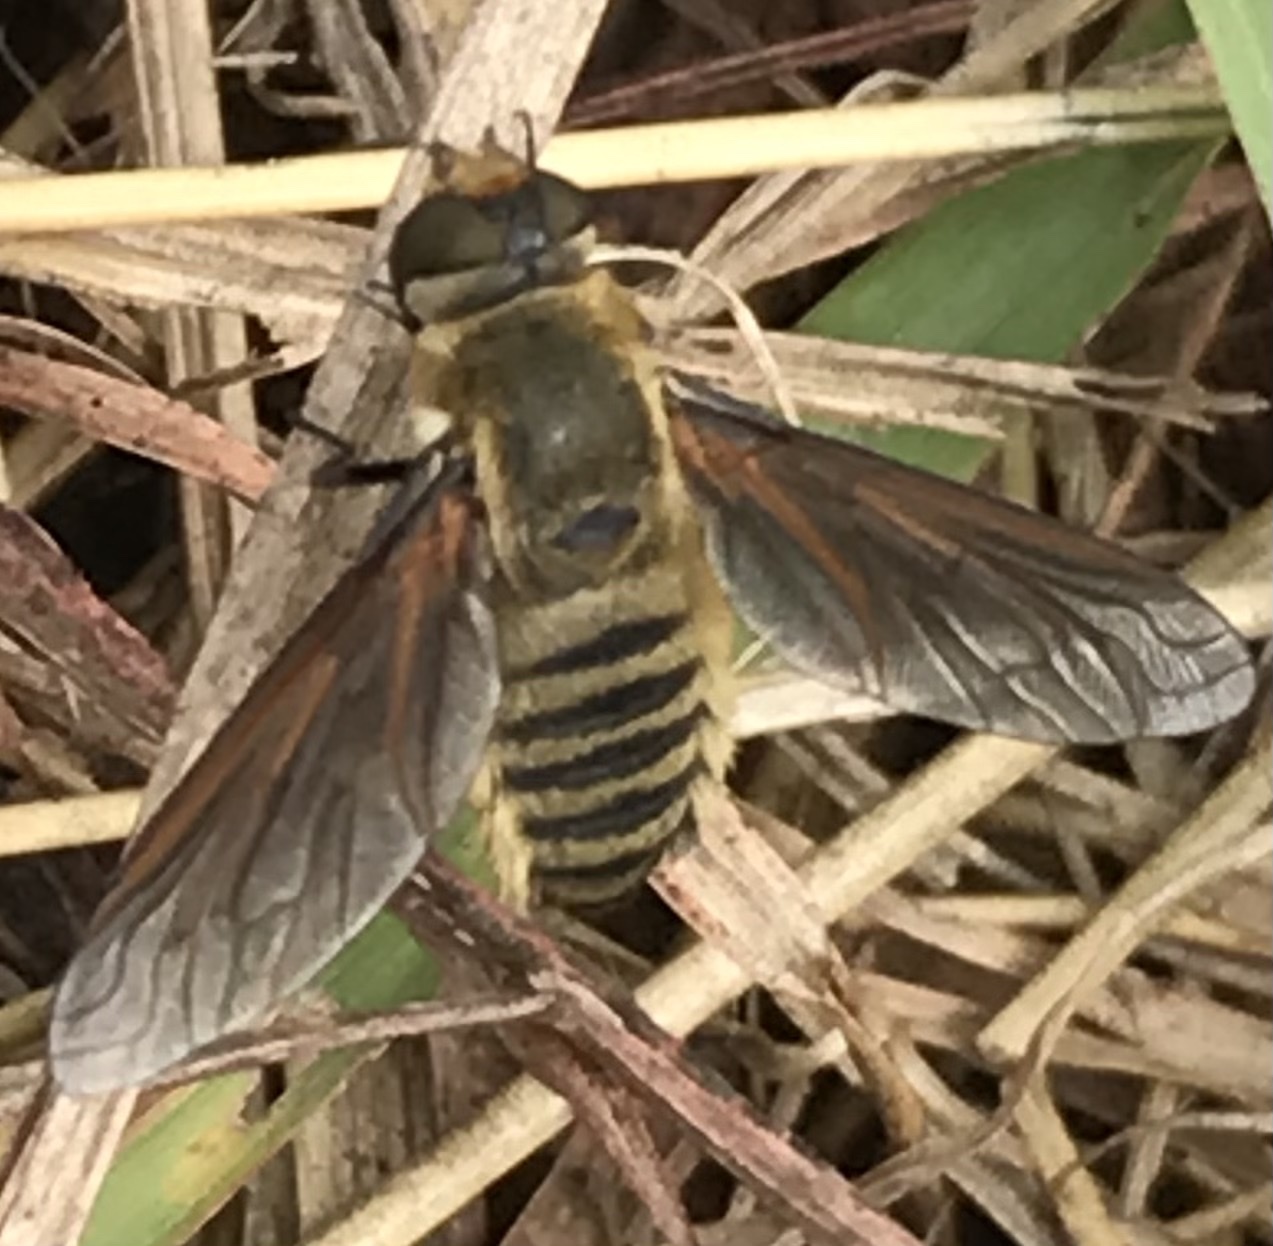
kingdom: Animalia
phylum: Arthropoda
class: Insecta
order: Diptera
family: Bombyliidae
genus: Poecilanthrax
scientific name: Poecilanthrax lucifer
